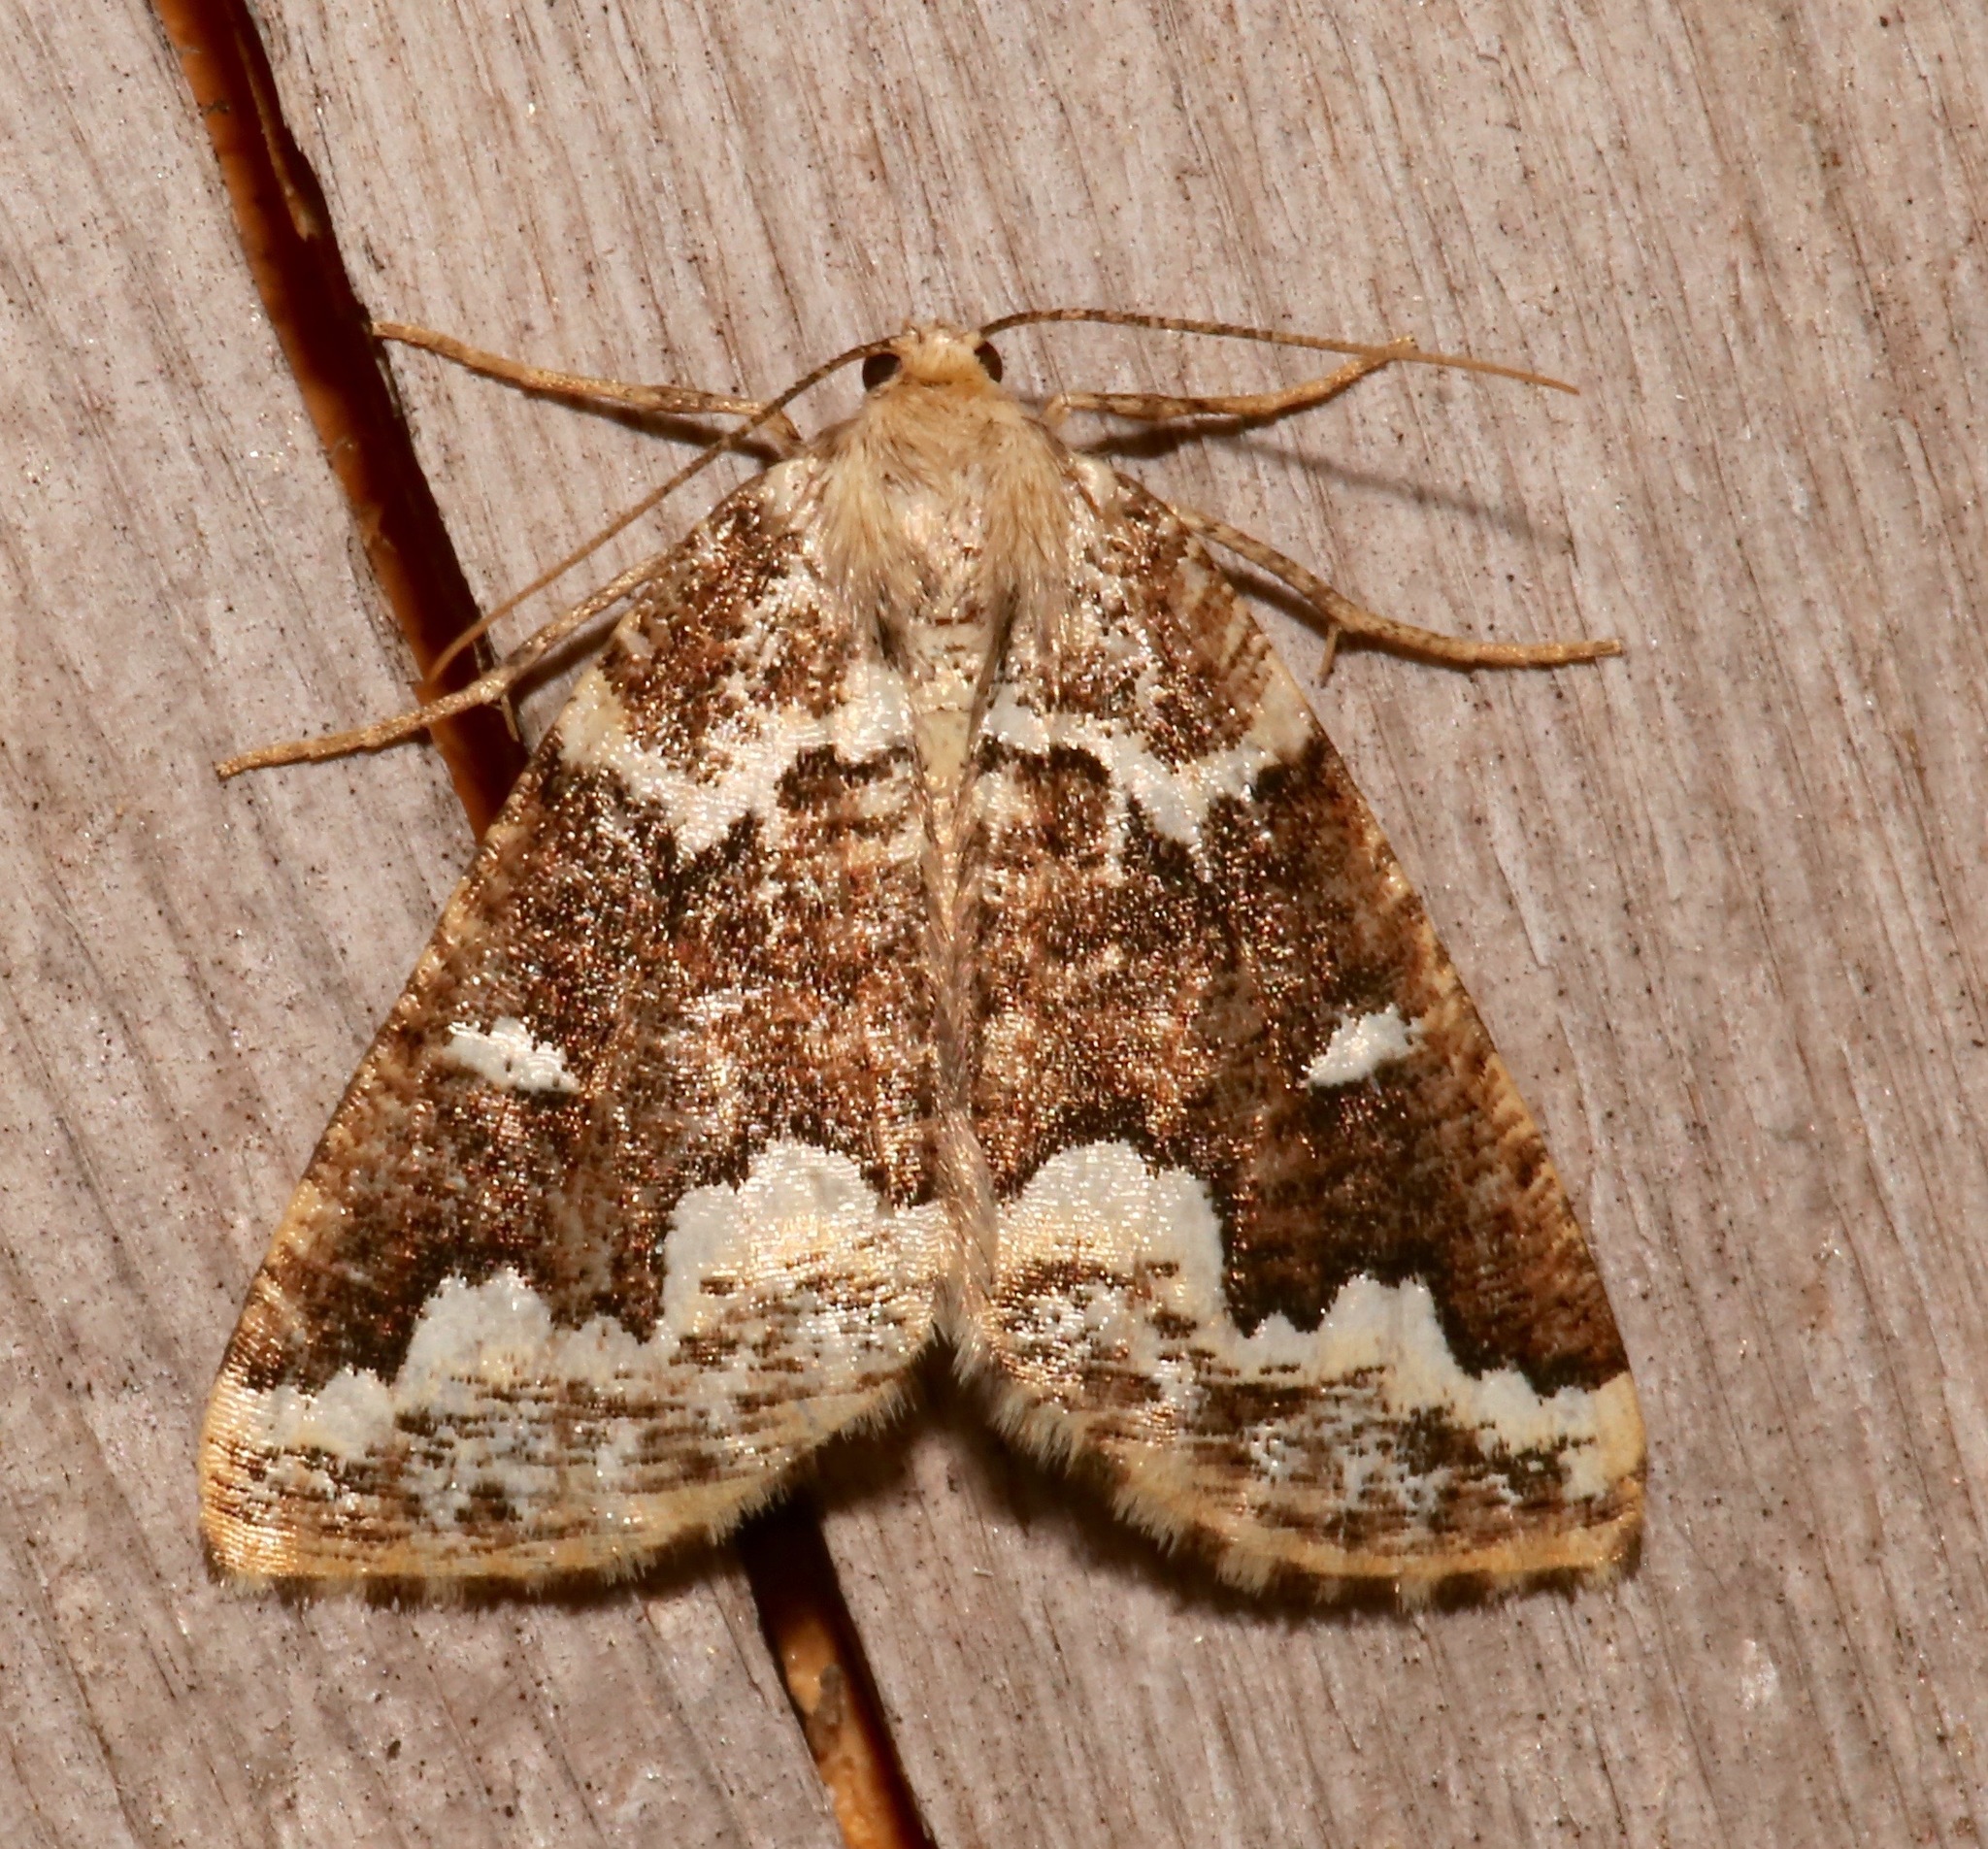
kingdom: Animalia
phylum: Arthropoda
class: Insecta
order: Lepidoptera
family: Geometridae
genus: Caripeta
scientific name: Caripeta divisata
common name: Gray spruce looper
